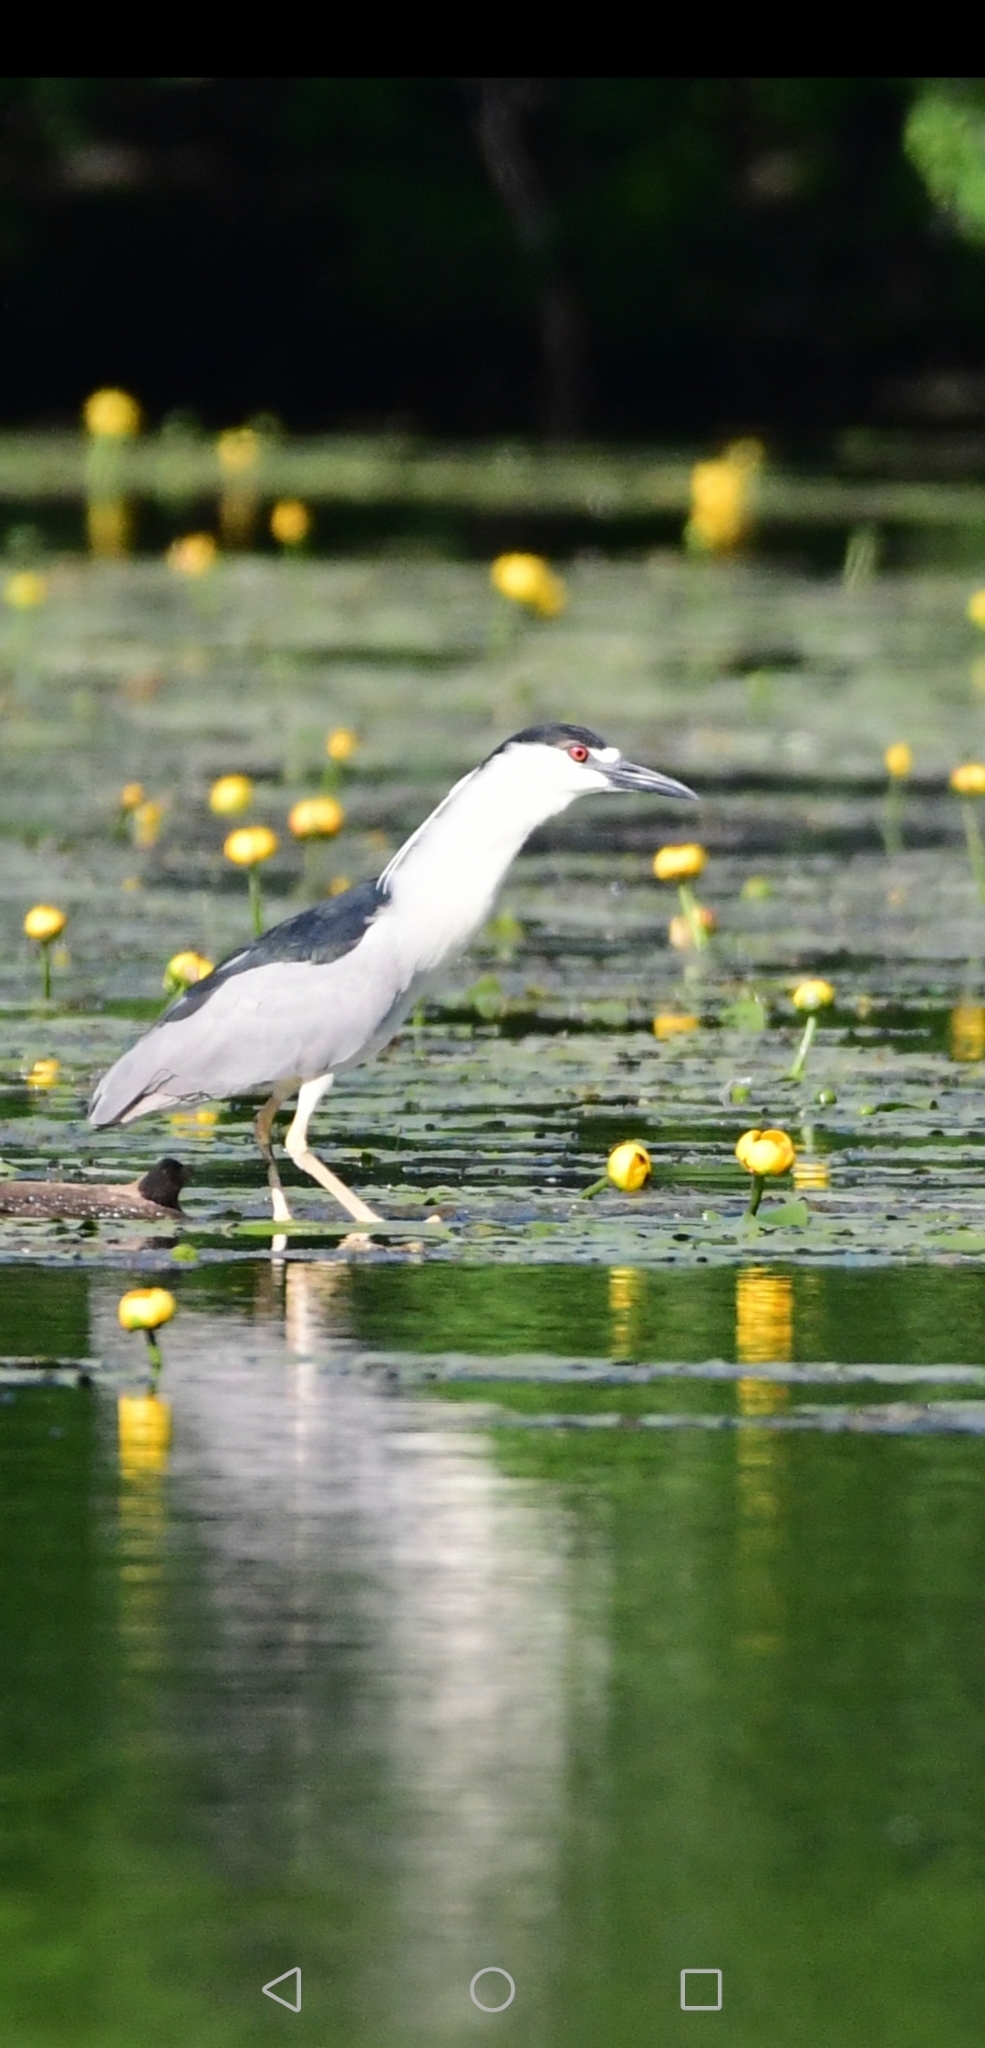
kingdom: Animalia
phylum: Chordata
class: Aves
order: Pelecaniformes
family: Ardeidae
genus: Nycticorax
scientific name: Nycticorax nycticorax
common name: Black-crowned night heron
